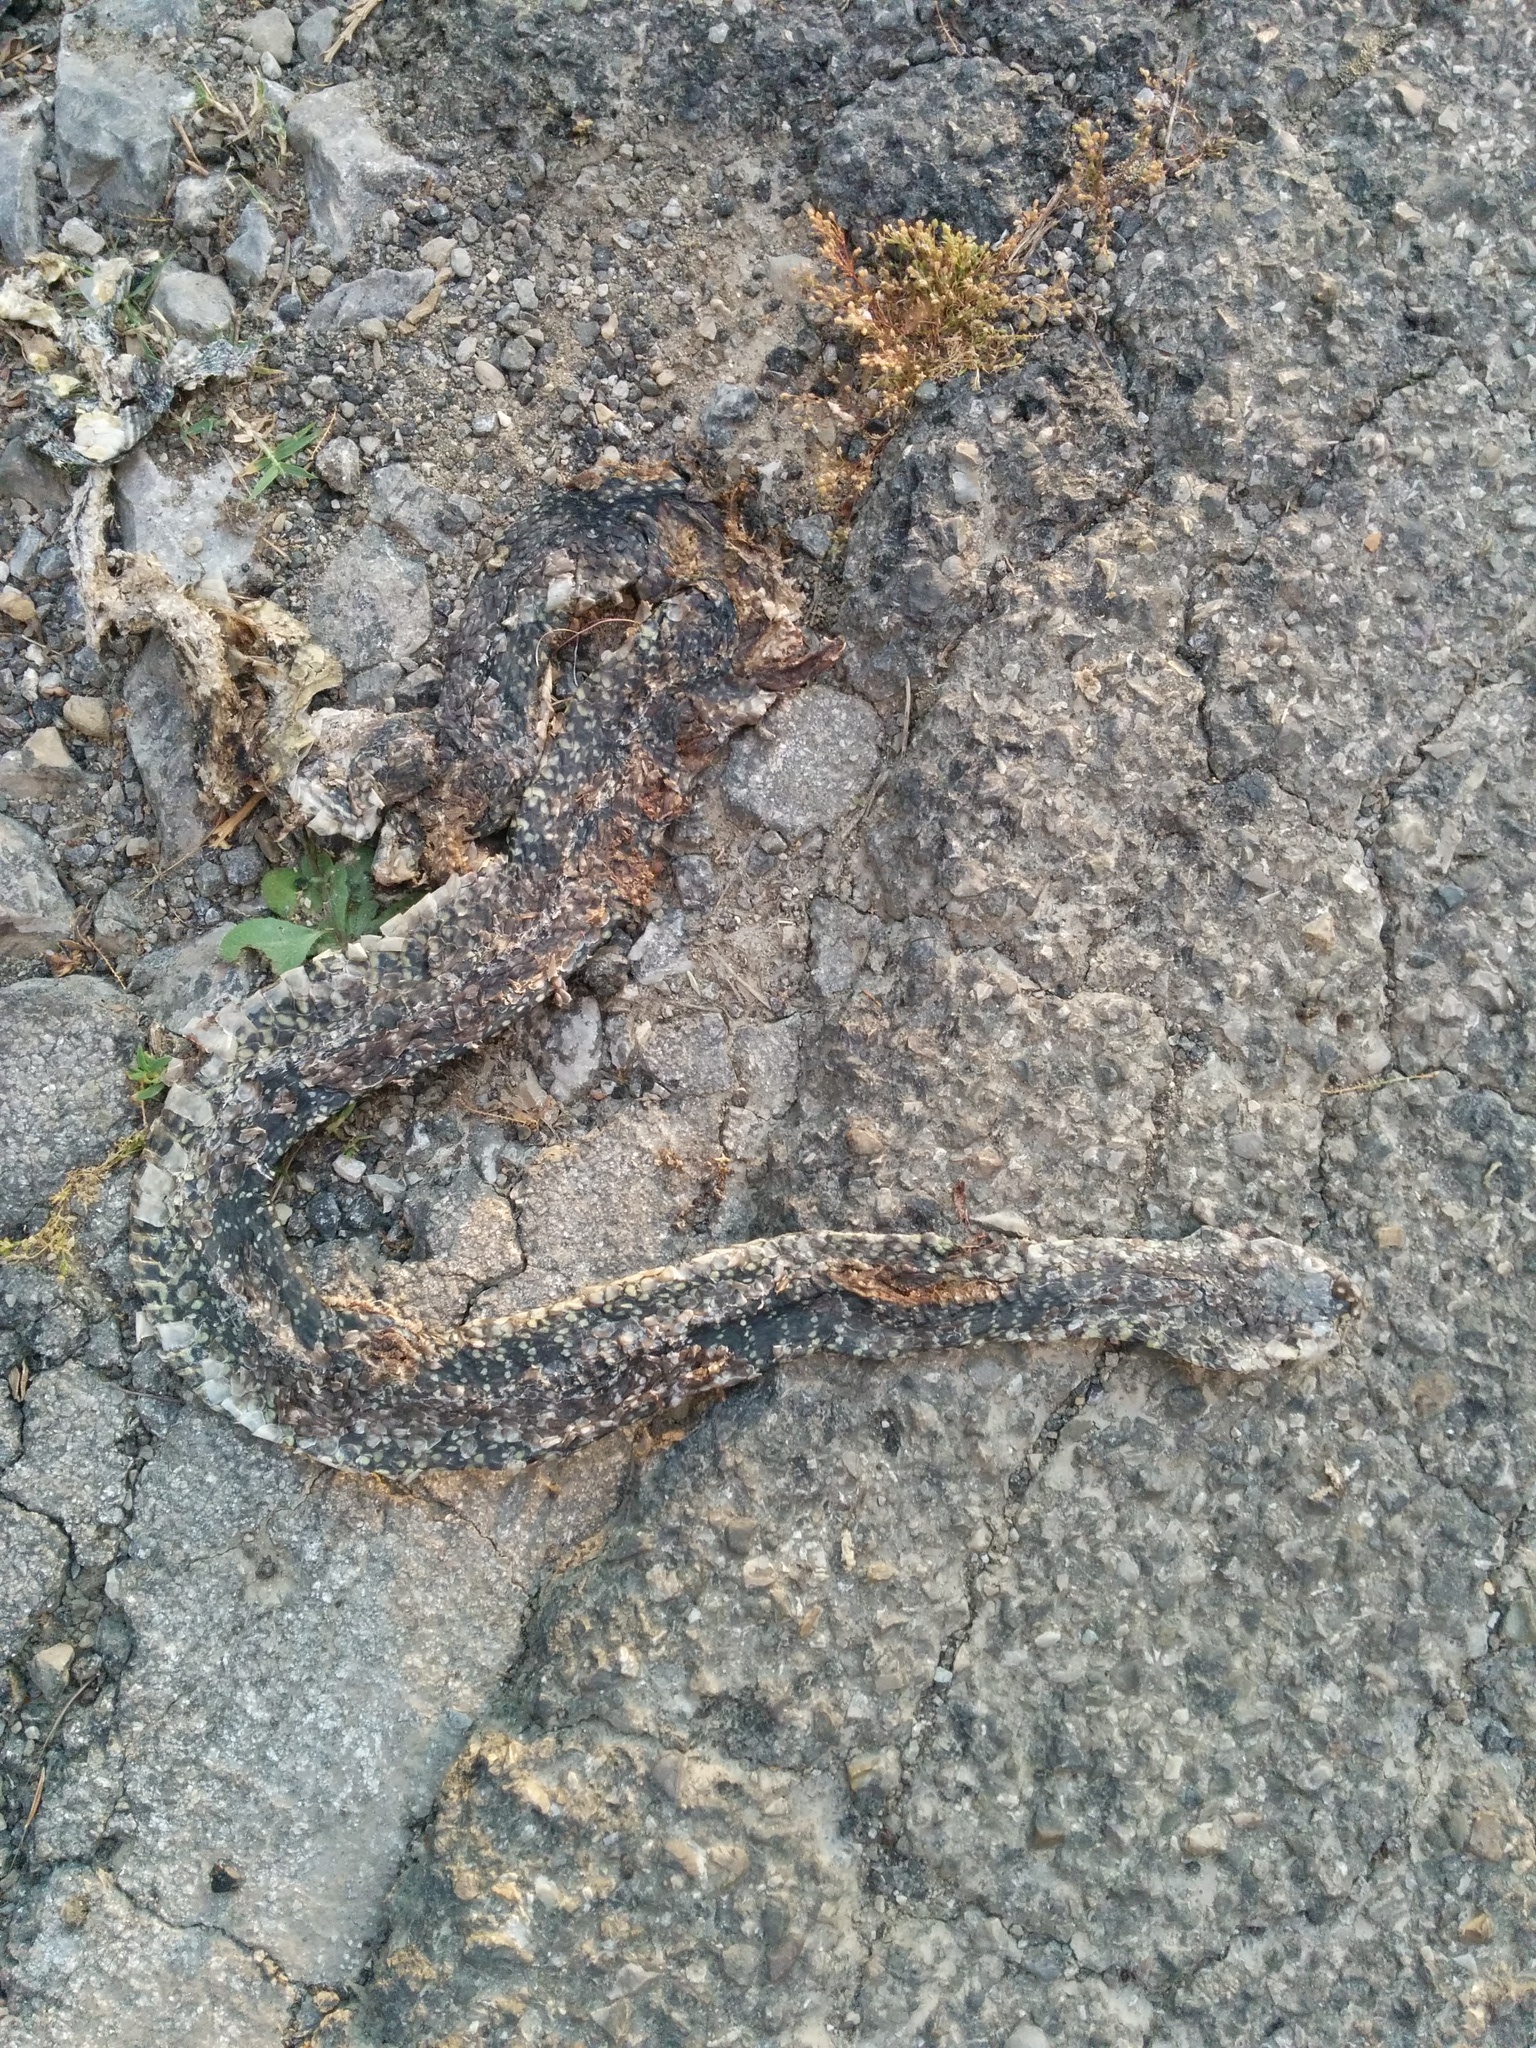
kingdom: Animalia
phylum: Chordata
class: Squamata
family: Colubridae
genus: Hierophis
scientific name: Hierophis viridiflavus
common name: Green whip snake
